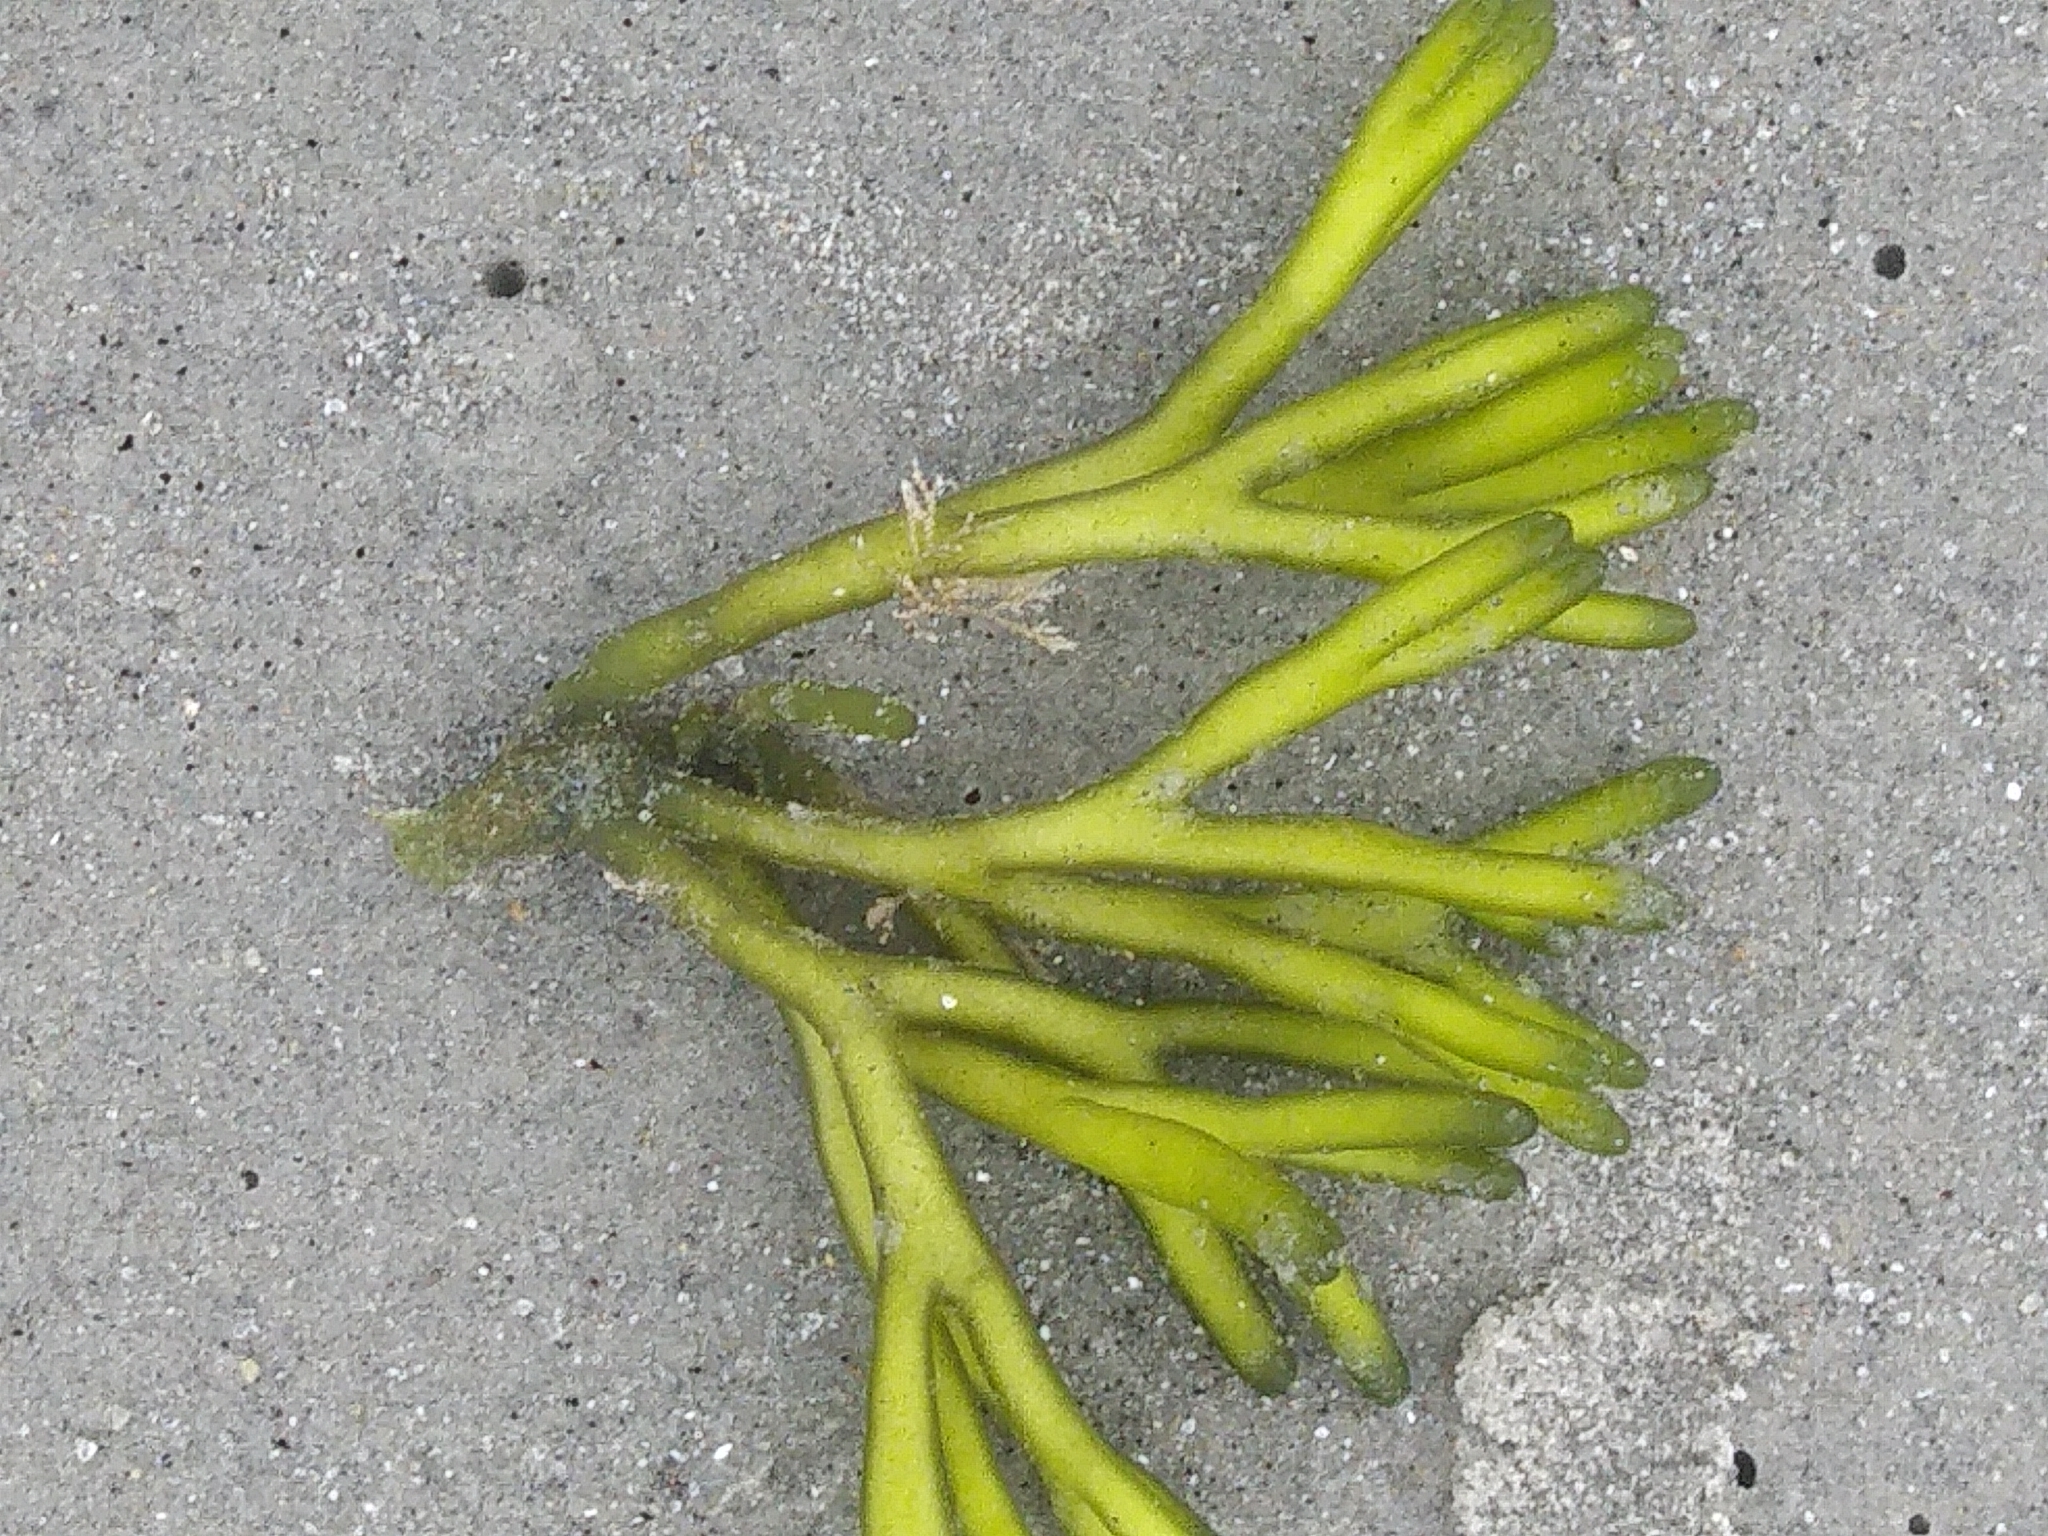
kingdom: Plantae
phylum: Chlorophyta
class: Ulvophyceae
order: Bryopsidales
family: Codiaceae
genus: Codium
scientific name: Codium fragile
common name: Dead man's fingers
